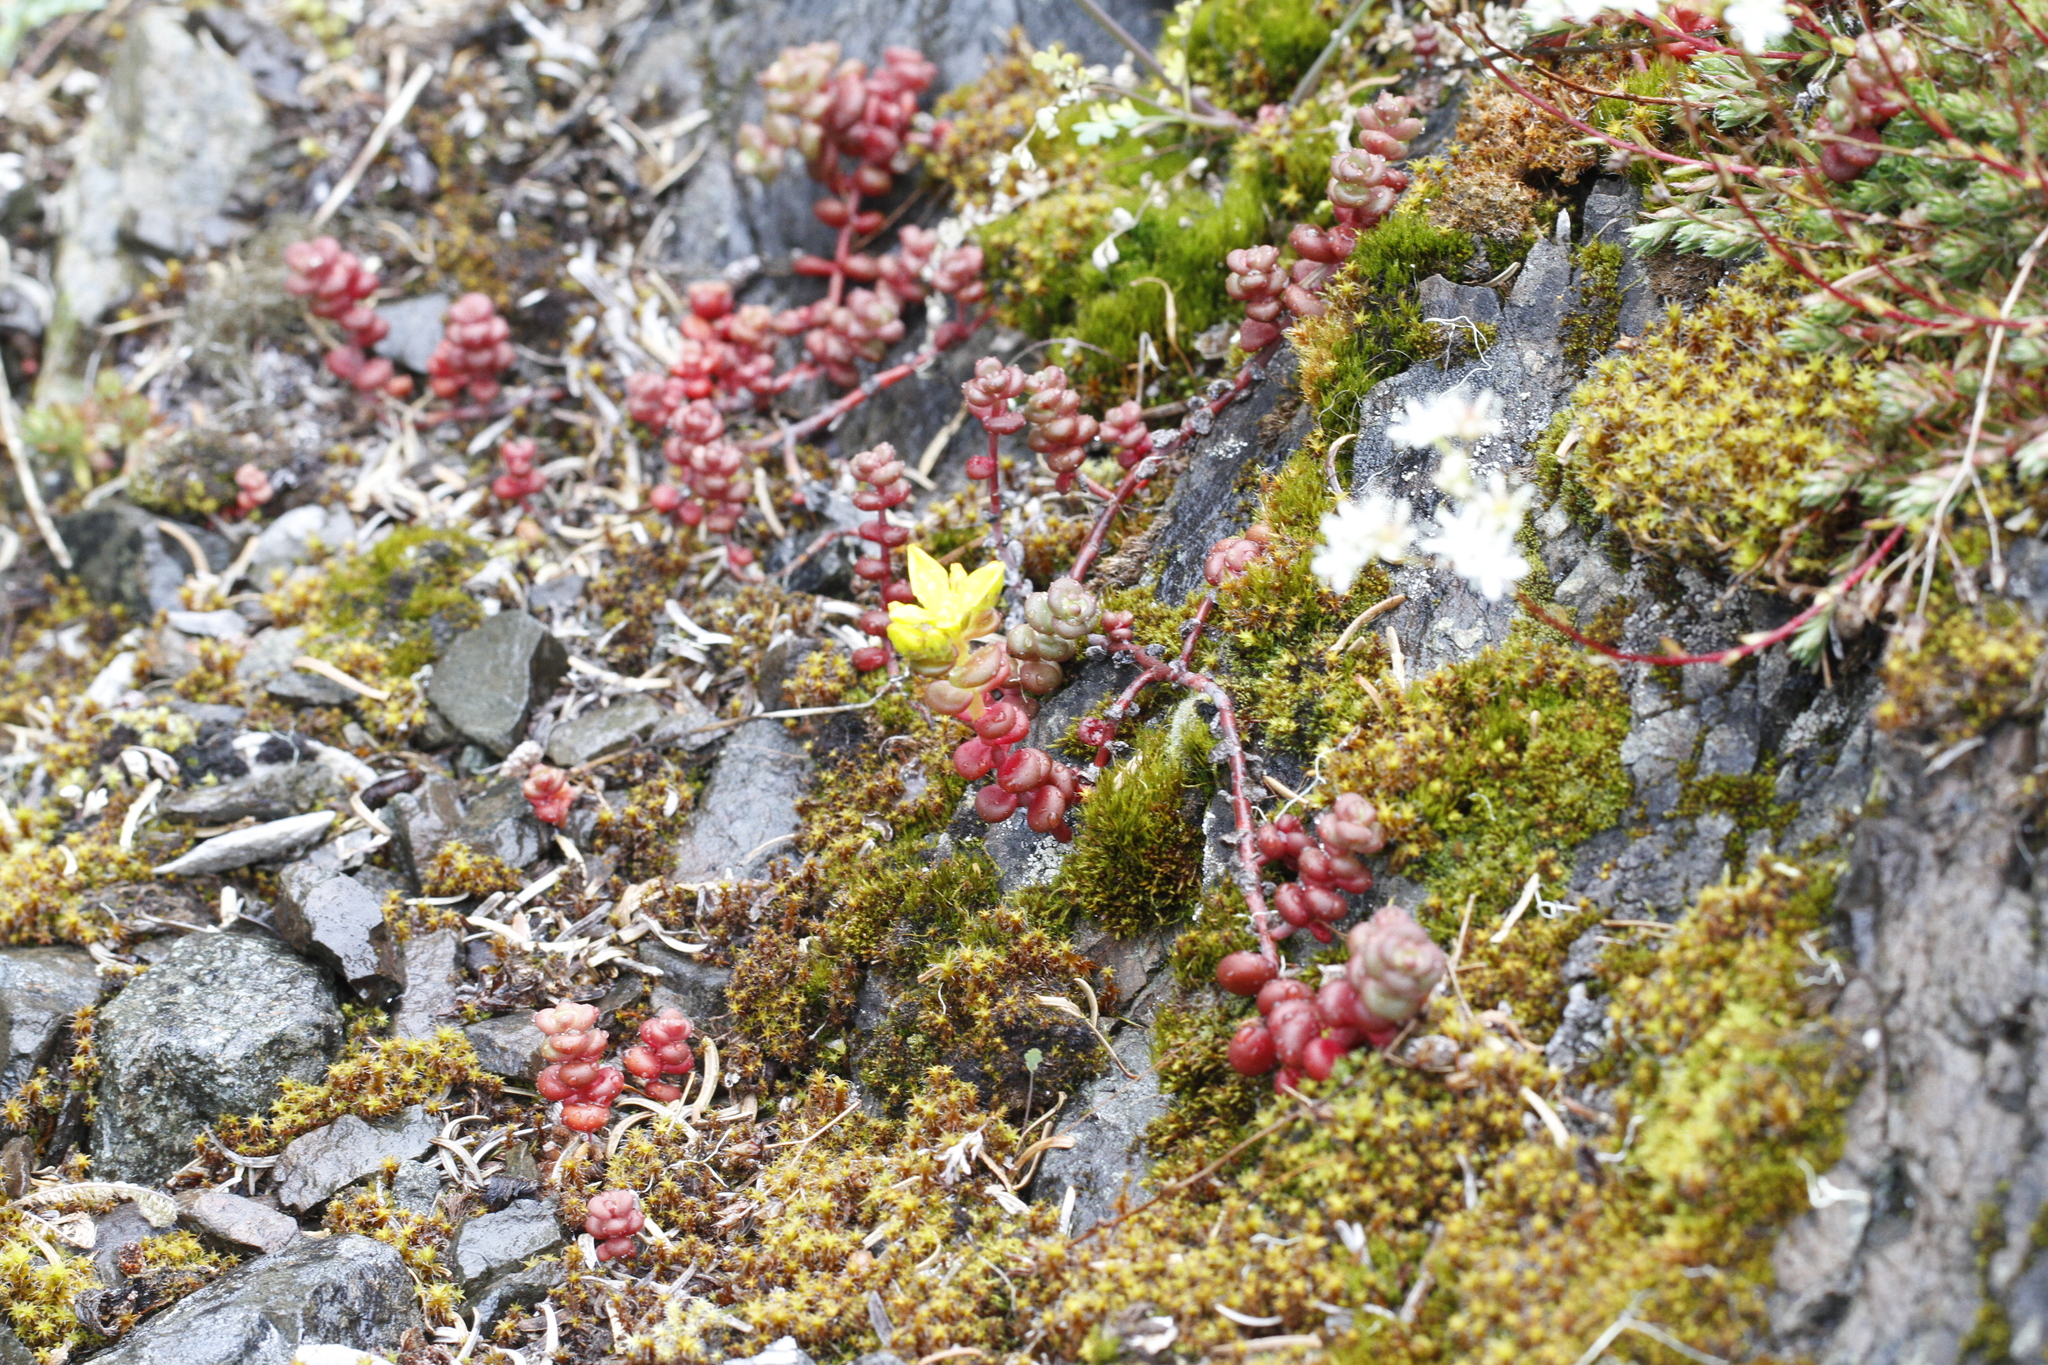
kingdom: Plantae
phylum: Tracheophyta
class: Magnoliopsida
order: Saxifragales
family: Crassulaceae
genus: Sedum
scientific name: Sedum divergens
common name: Cascade stonecrop
